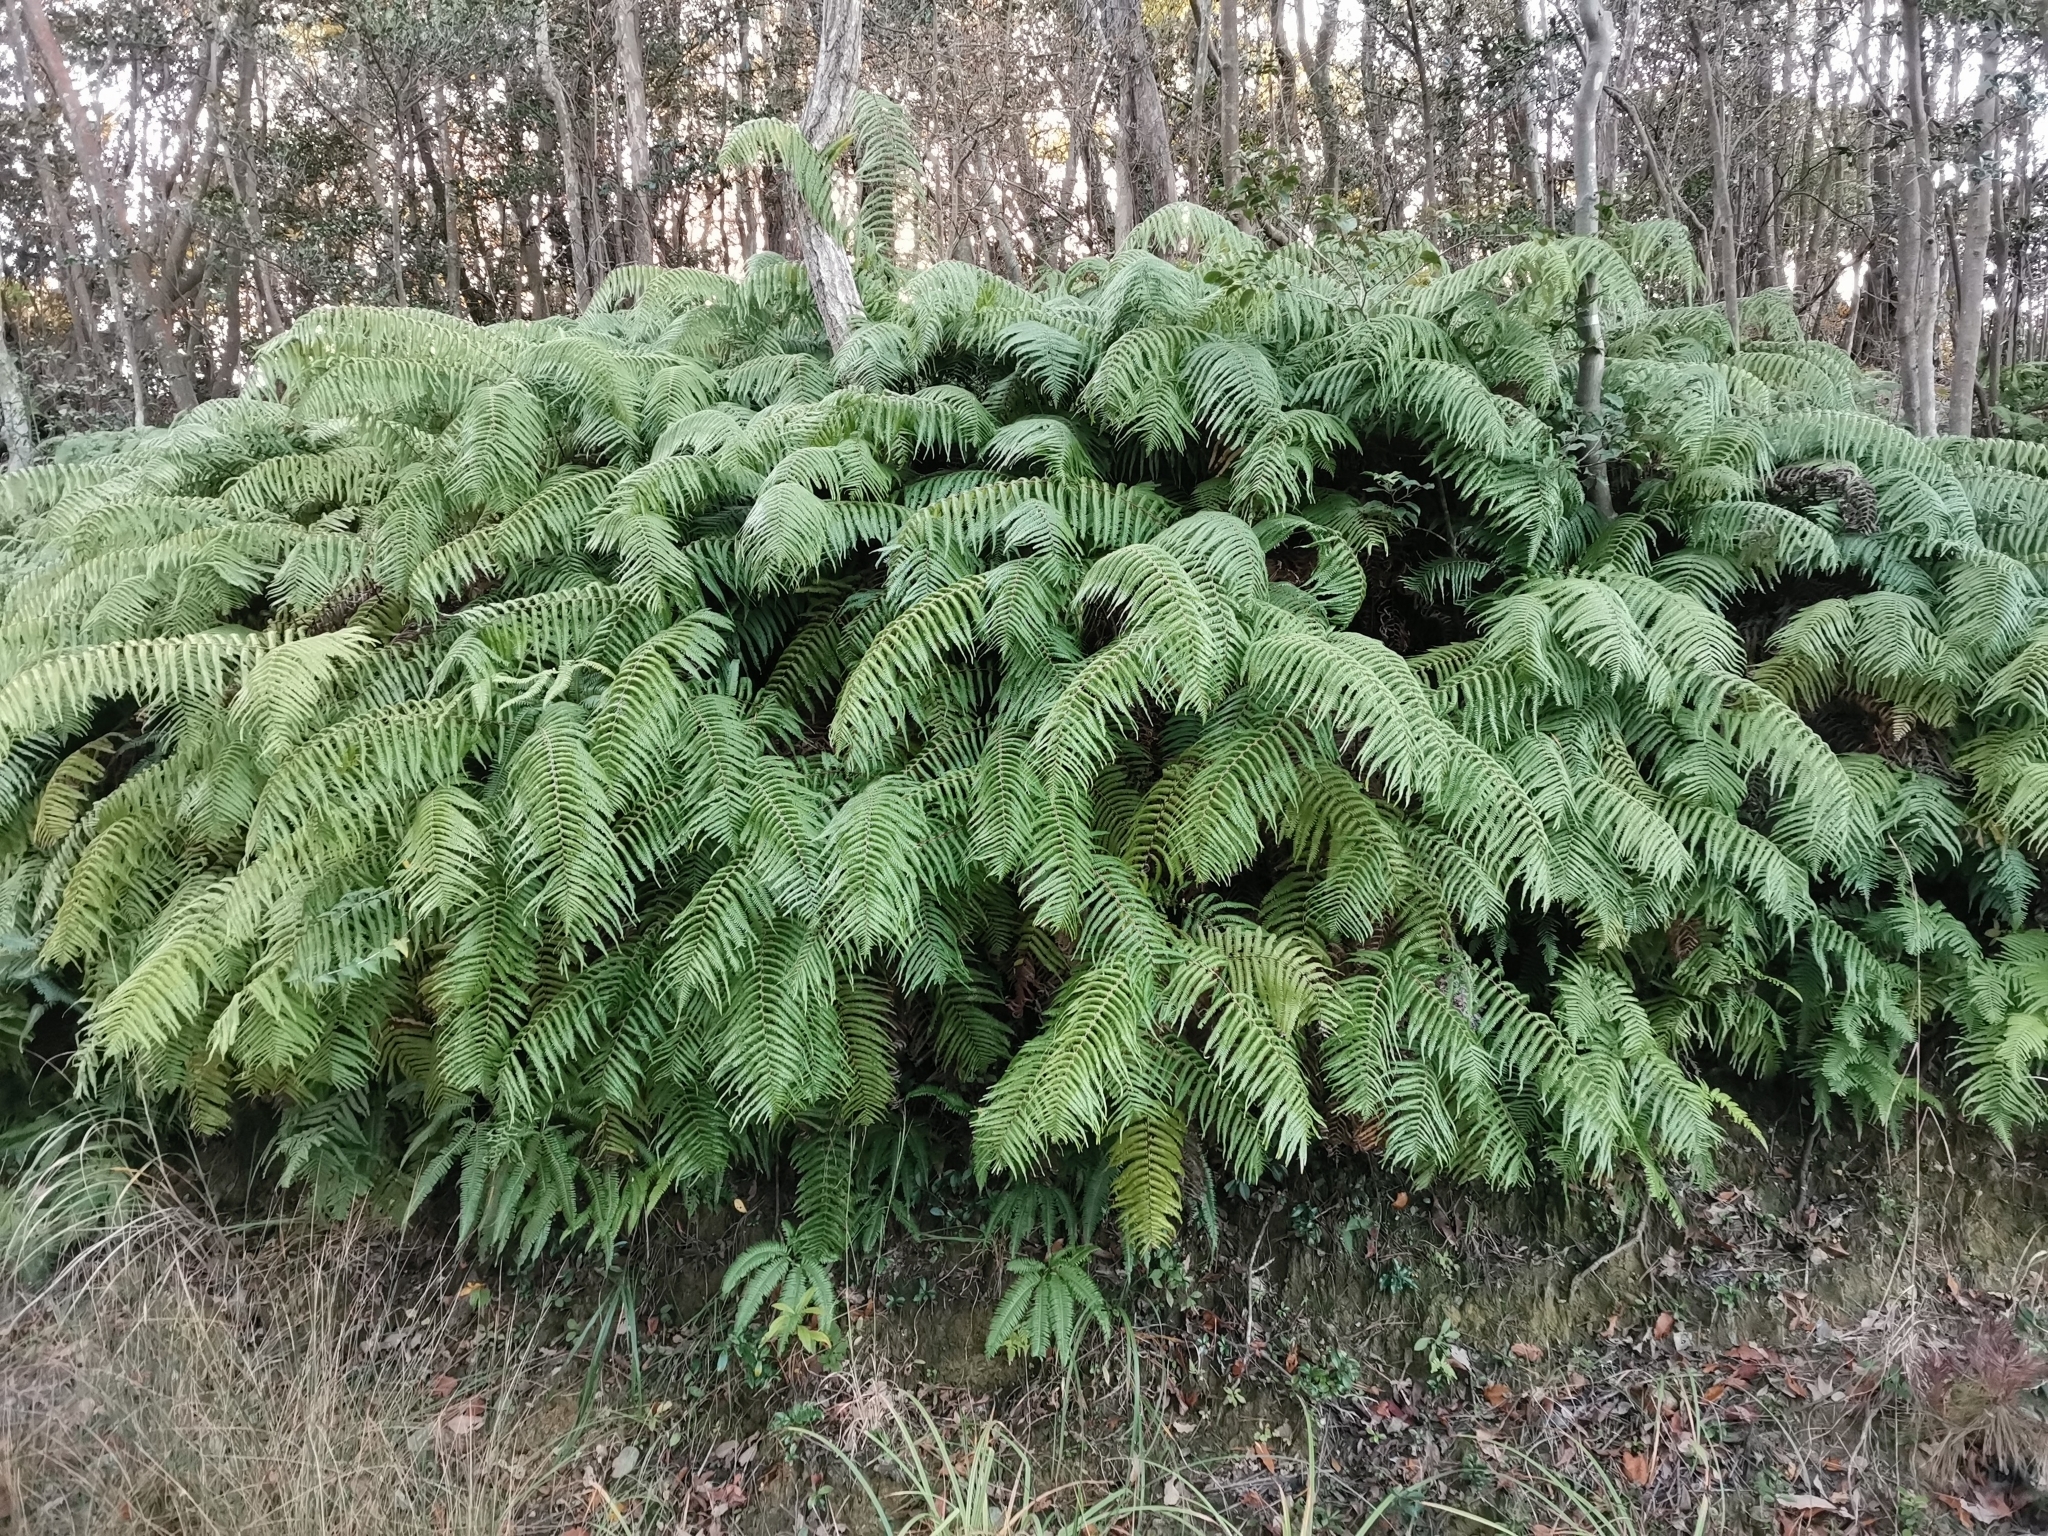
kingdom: Plantae
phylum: Tracheophyta
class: Polypodiopsida
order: Gleicheniales
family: Gleicheniaceae
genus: Diplopterygium
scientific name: Diplopterygium glaucum
